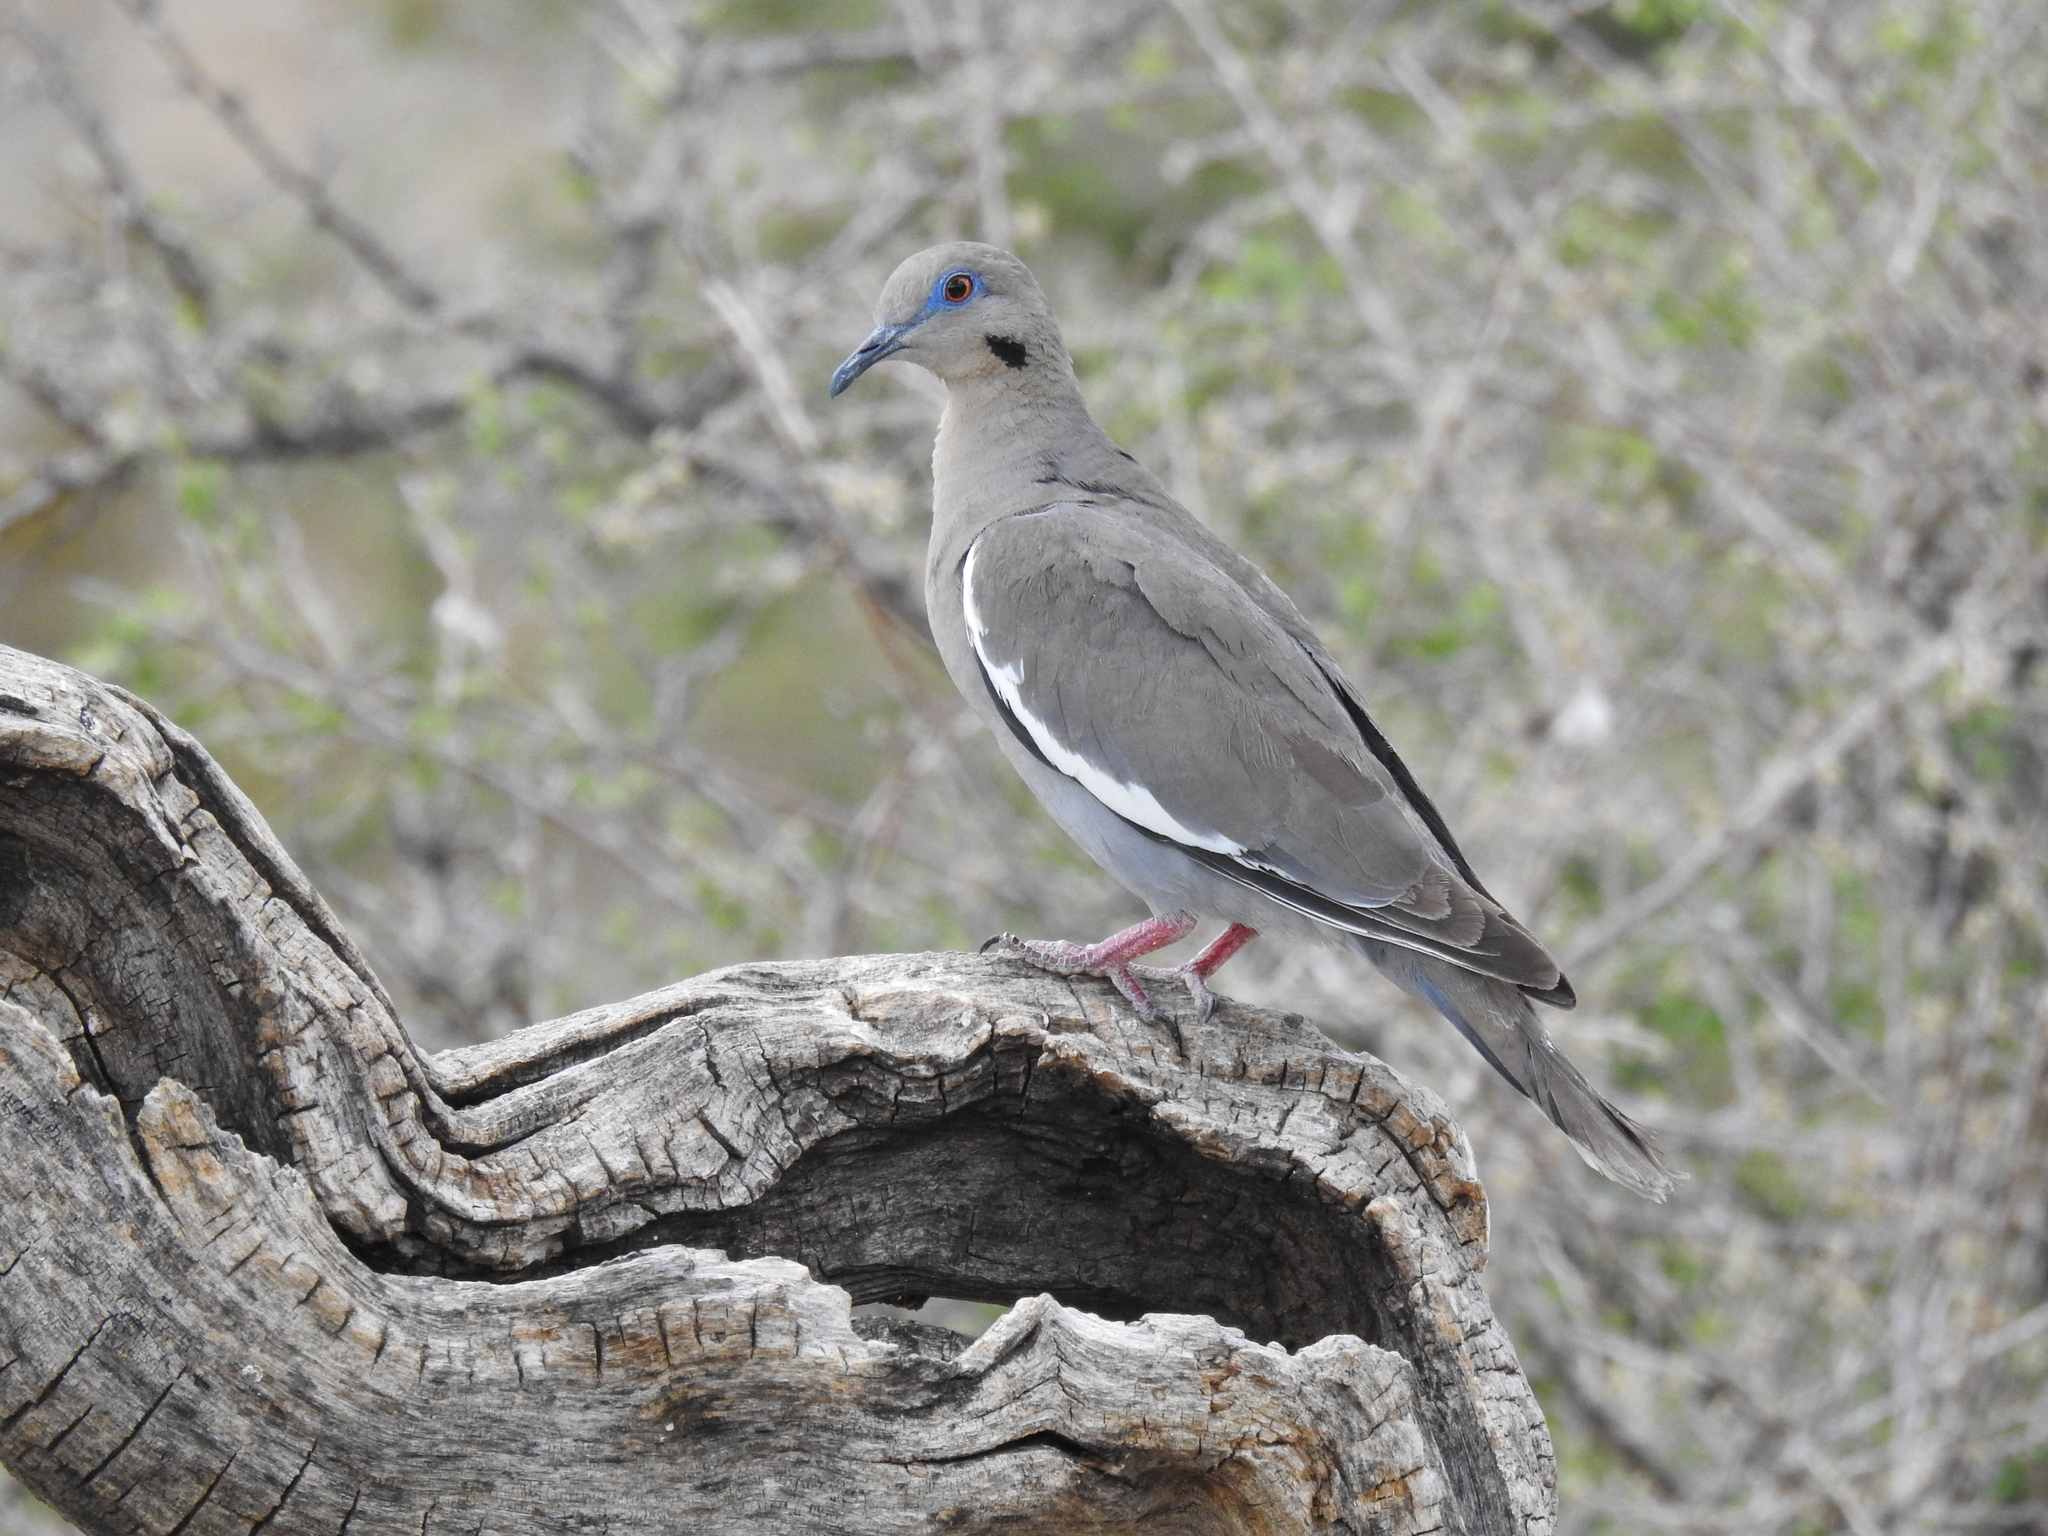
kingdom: Animalia
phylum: Chordata
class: Aves
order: Columbiformes
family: Columbidae
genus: Zenaida
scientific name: Zenaida asiatica
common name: White-winged dove
